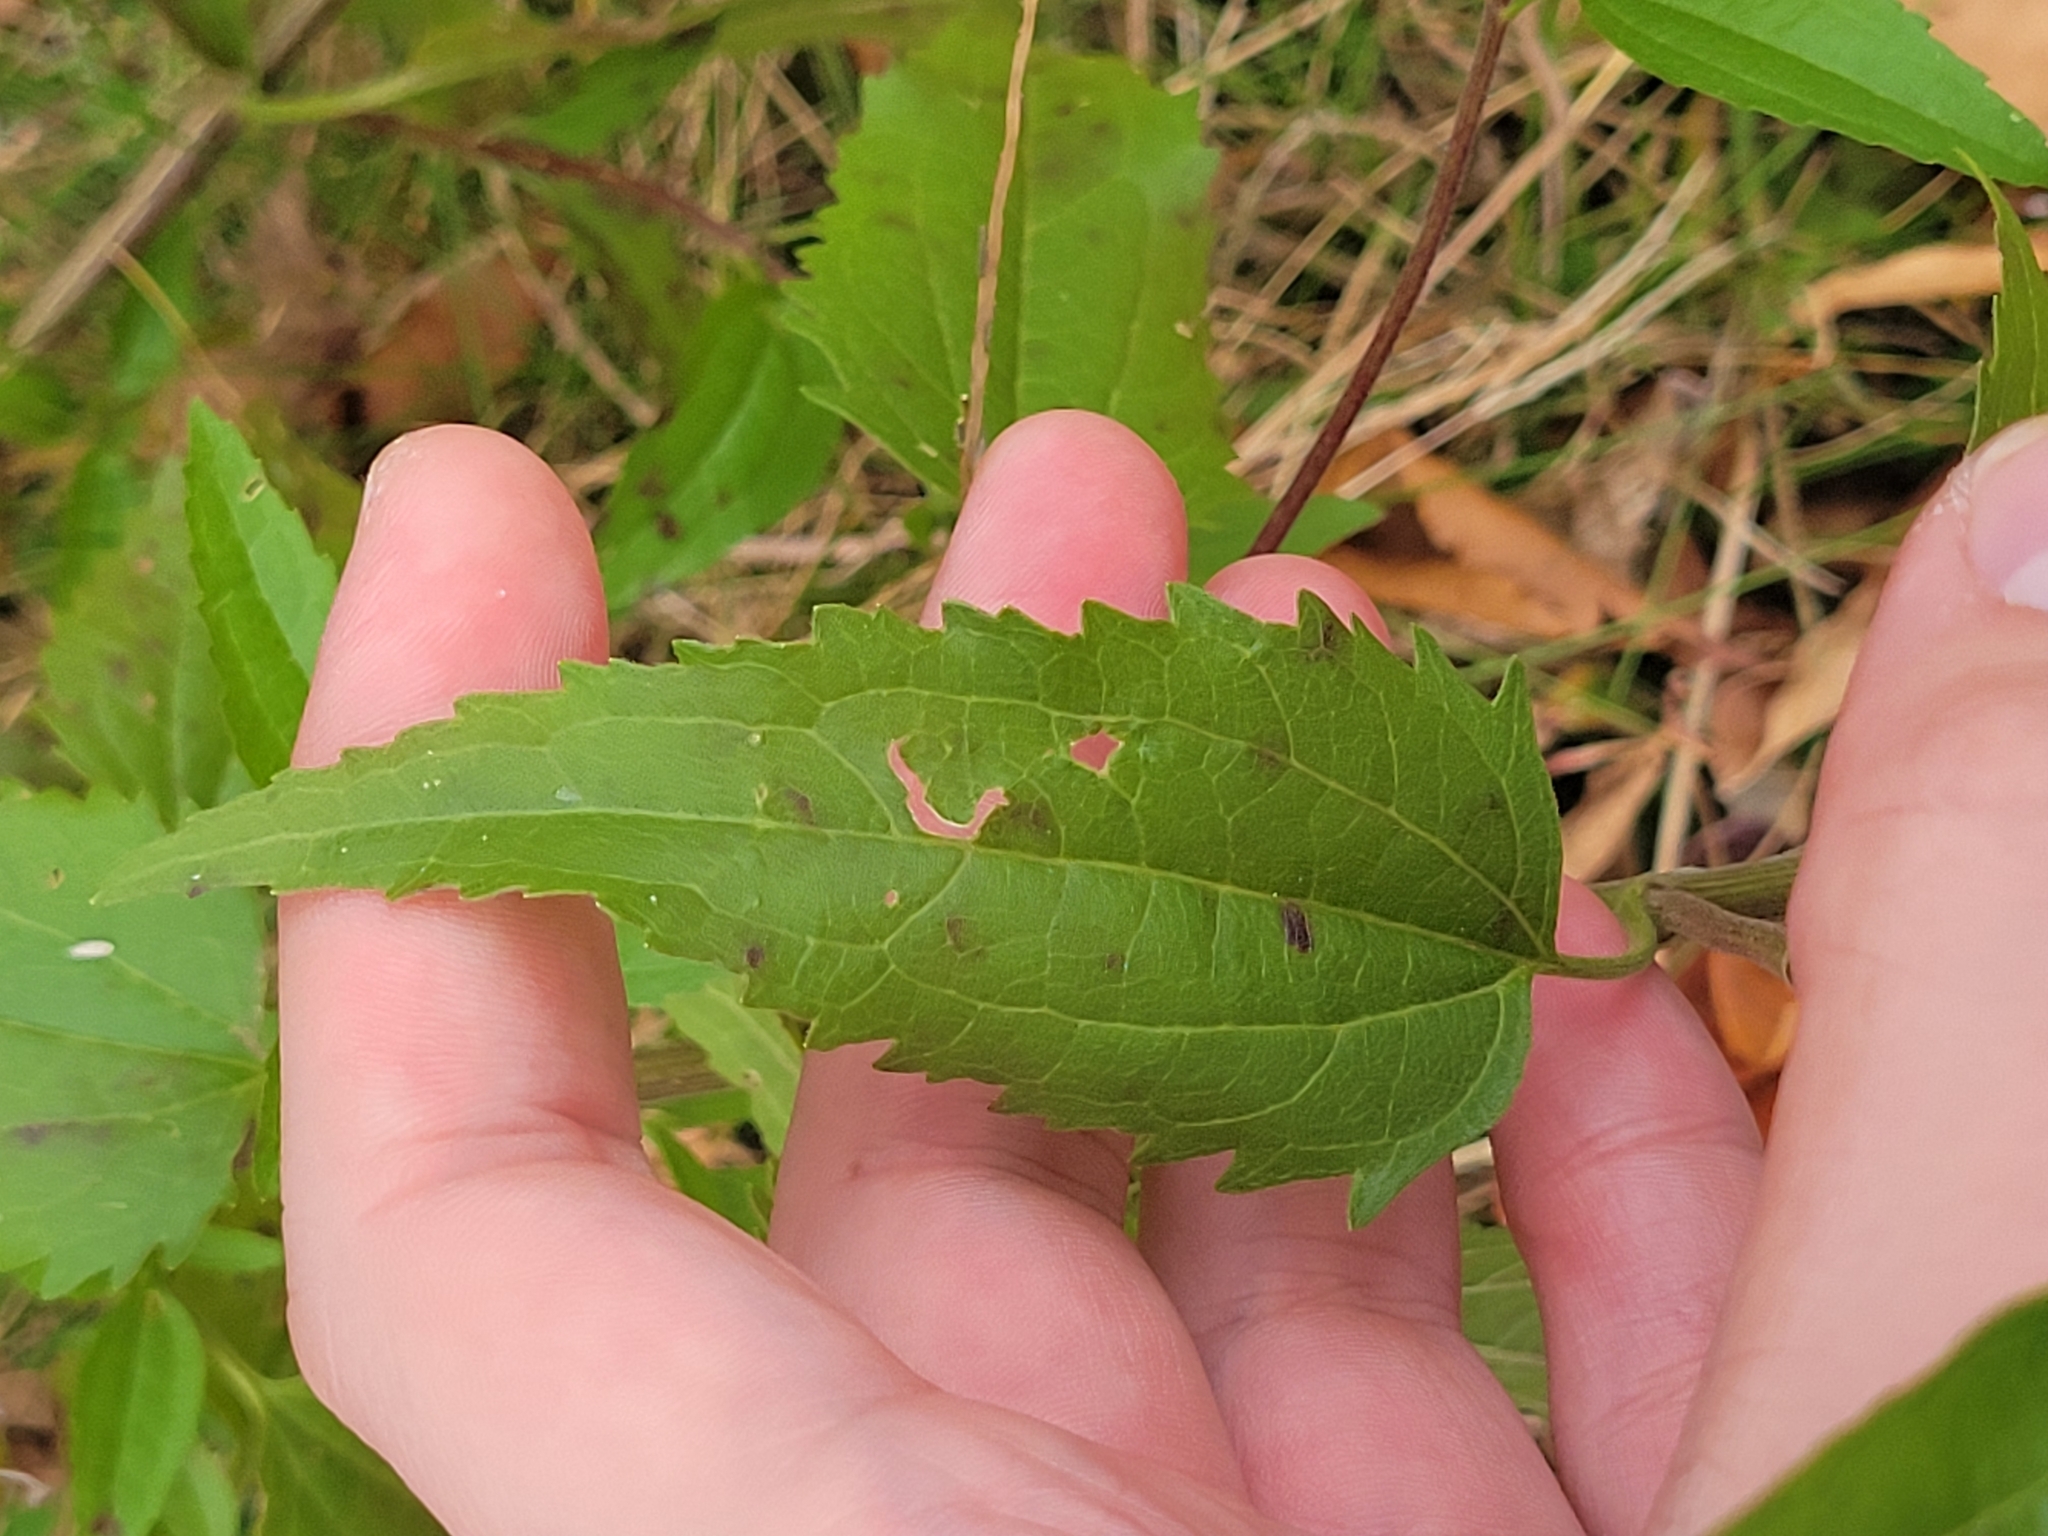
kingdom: Plantae
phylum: Tracheophyta
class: Magnoliopsida
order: Asterales
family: Asteraceae
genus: Eupatorium
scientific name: Eupatorium serotinum
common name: Late boneset
